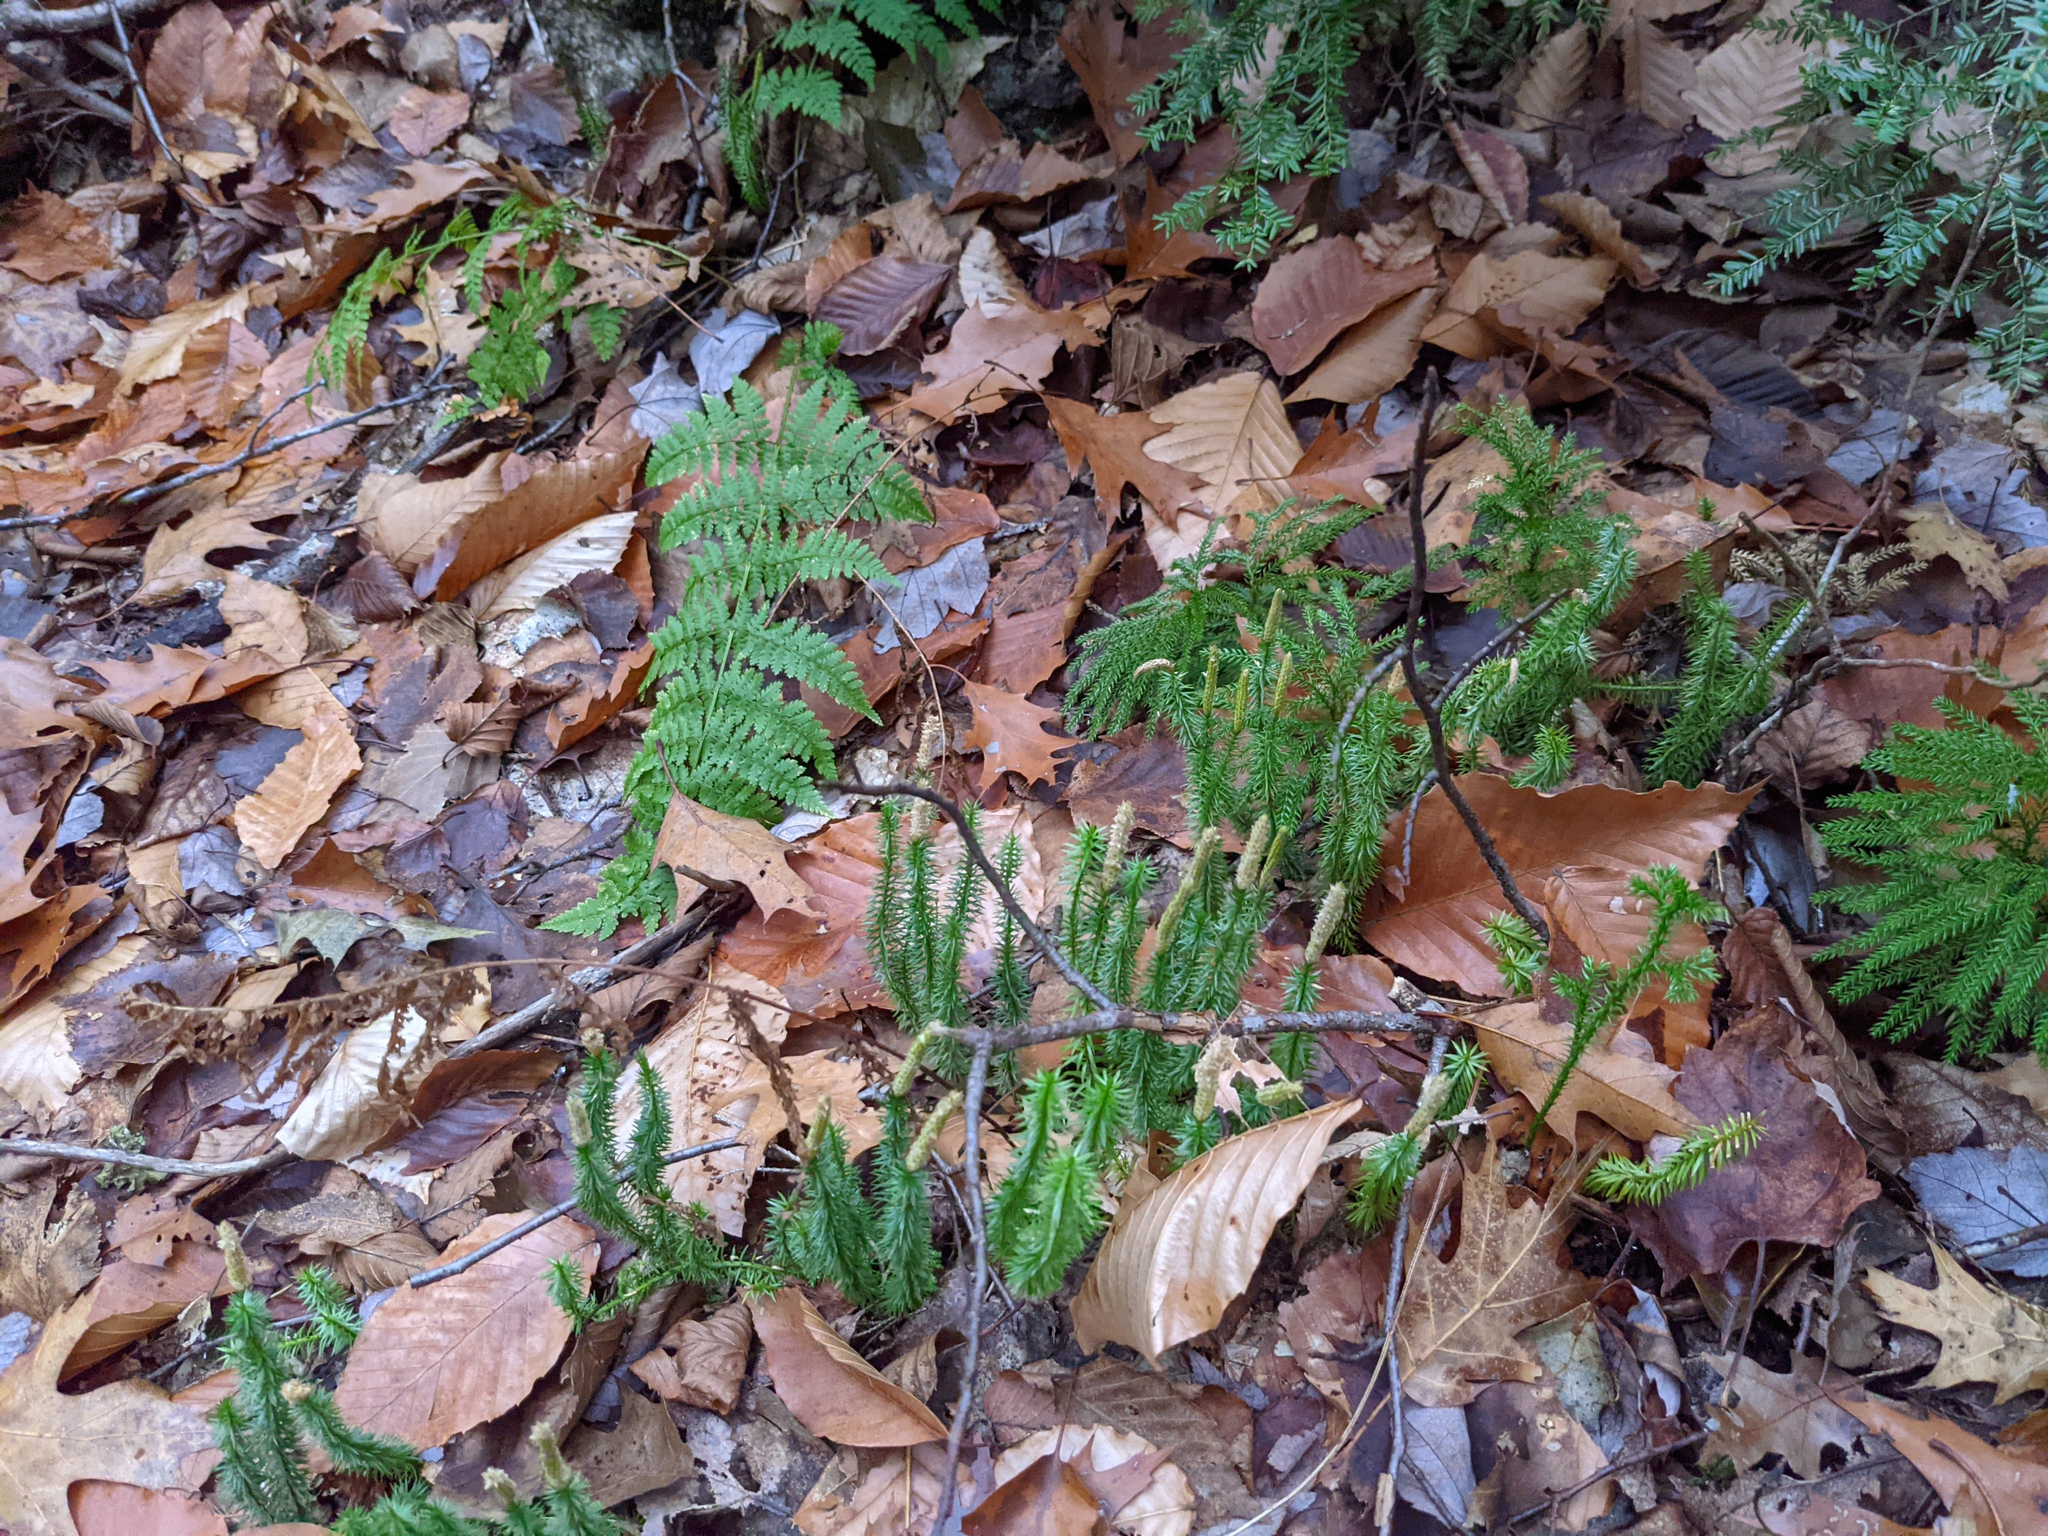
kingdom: Plantae
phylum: Tracheophyta
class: Lycopodiopsida
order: Lycopodiales
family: Lycopodiaceae
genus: Spinulum
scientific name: Spinulum annotinum
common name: Interrupted club-moss
